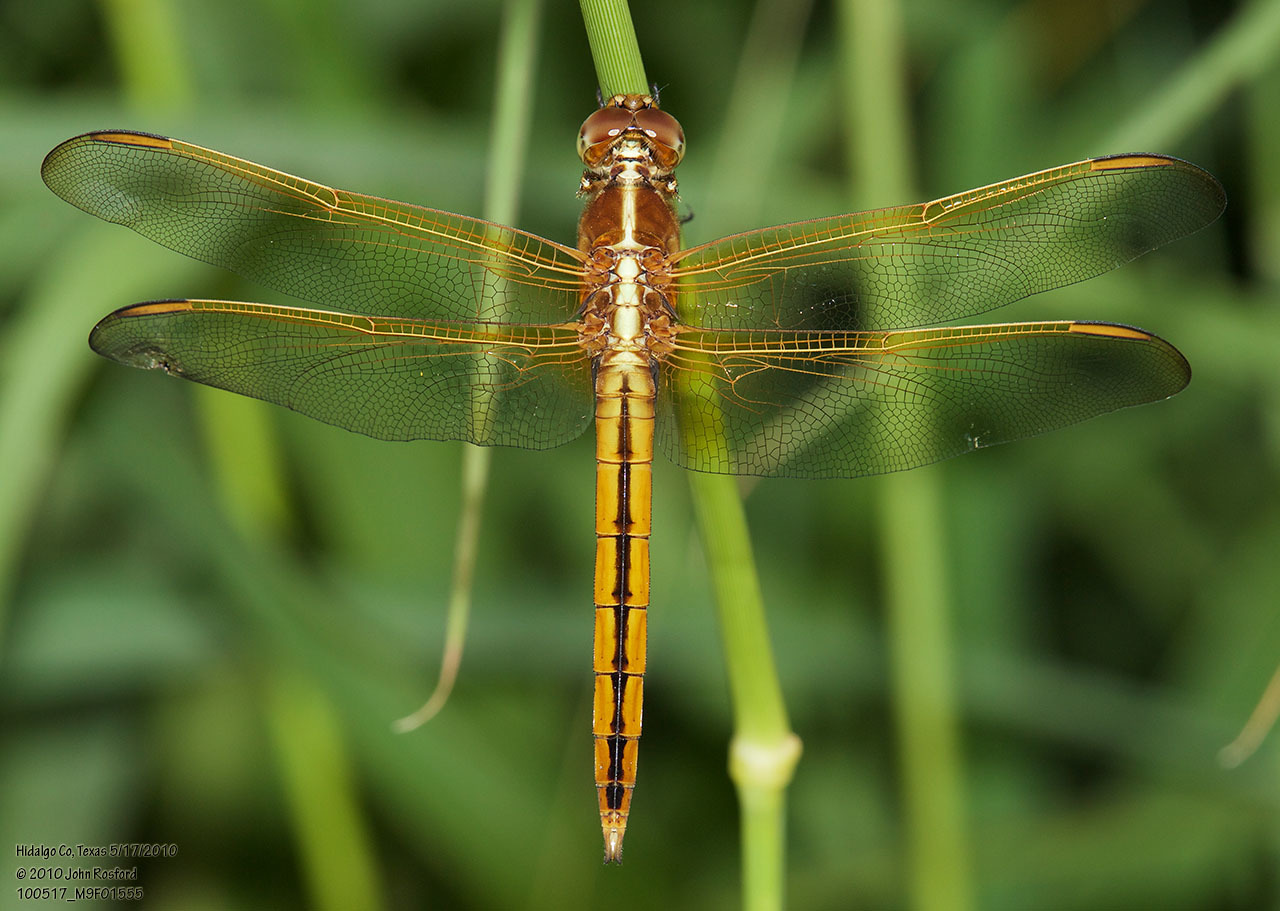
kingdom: Animalia
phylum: Arthropoda
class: Insecta
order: Odonata
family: Libellulidae
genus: Libellula
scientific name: Libellula needhami
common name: Needham's skimmer
